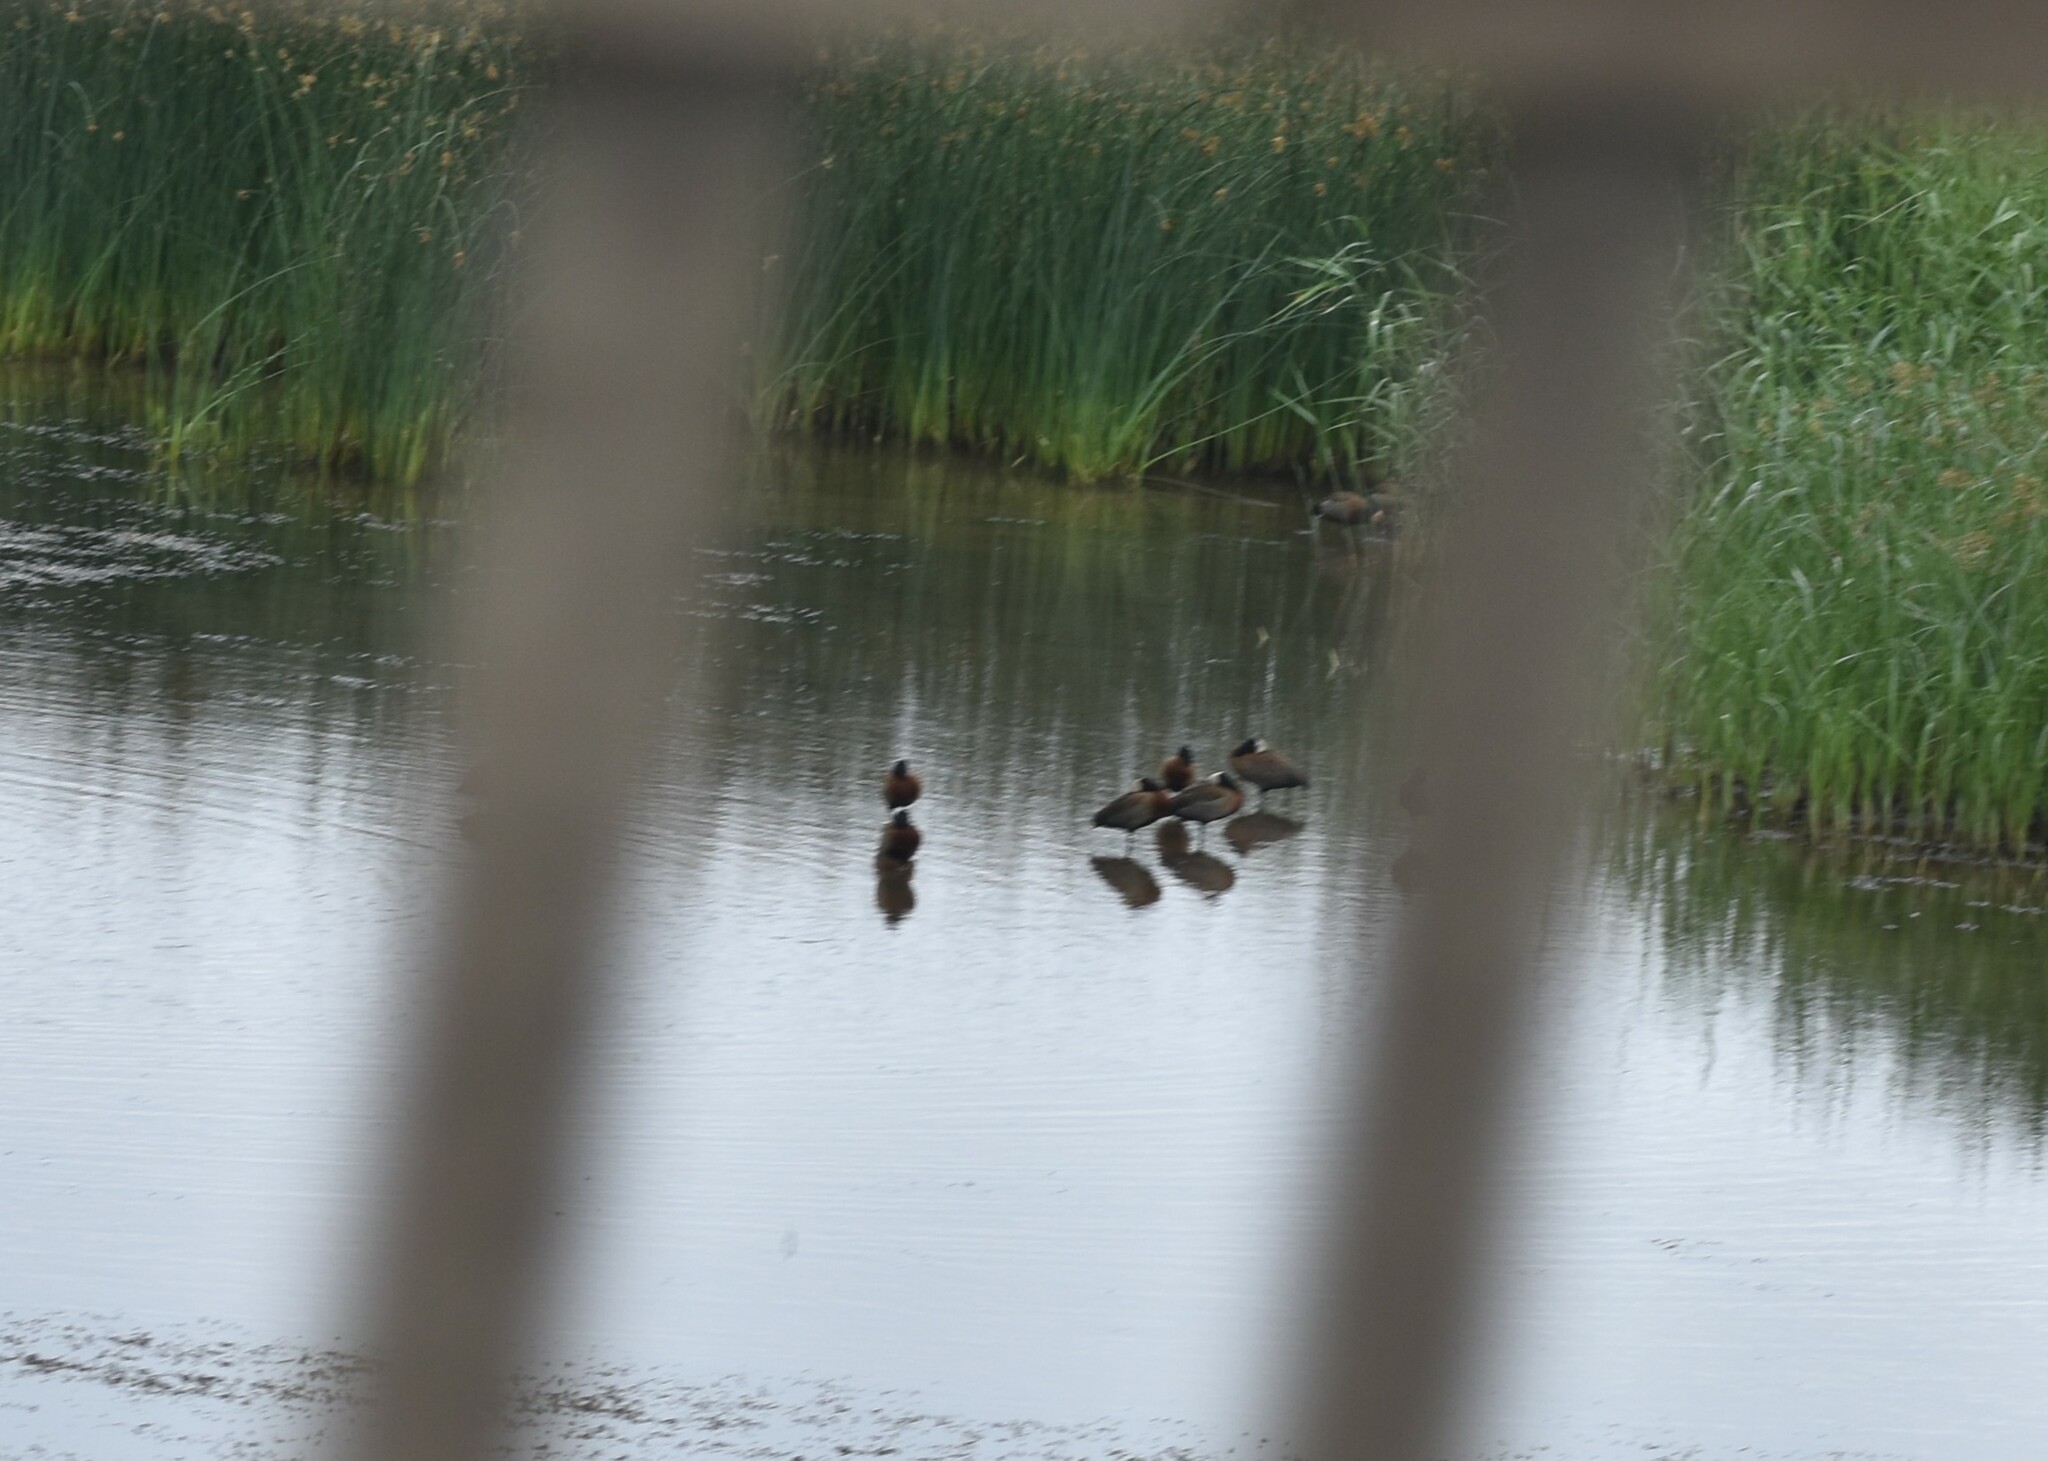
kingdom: Animalia
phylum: Chordata
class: Aves
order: Anseriformes
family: Anatidae
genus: Dendrocygna
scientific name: Dendrocygna viduata
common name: White-faced whistling duck
